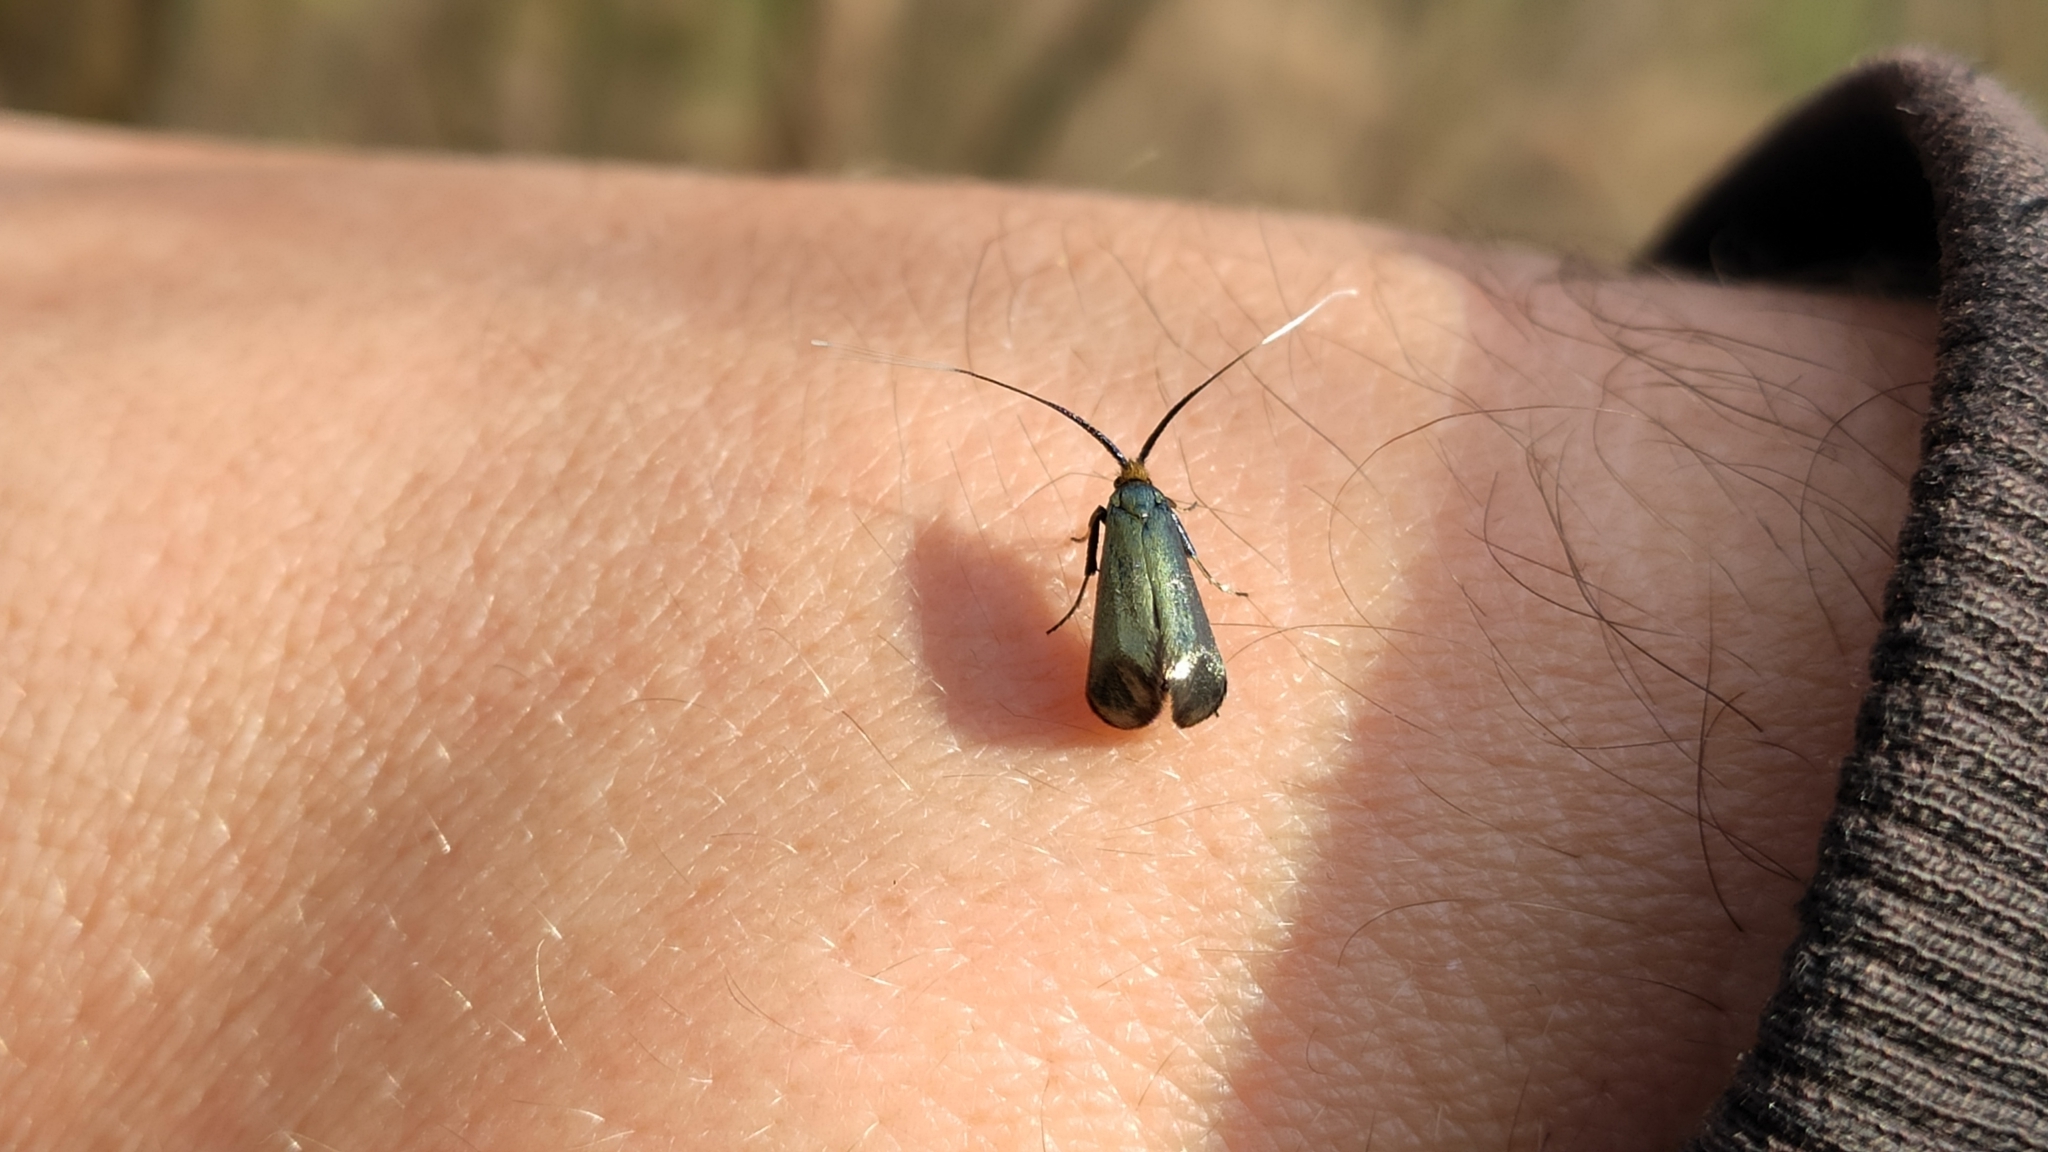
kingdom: Animalia
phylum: Arthropoda
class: Insecta
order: Lepidoptera
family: Adelidae
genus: Adela
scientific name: Adela viridella
